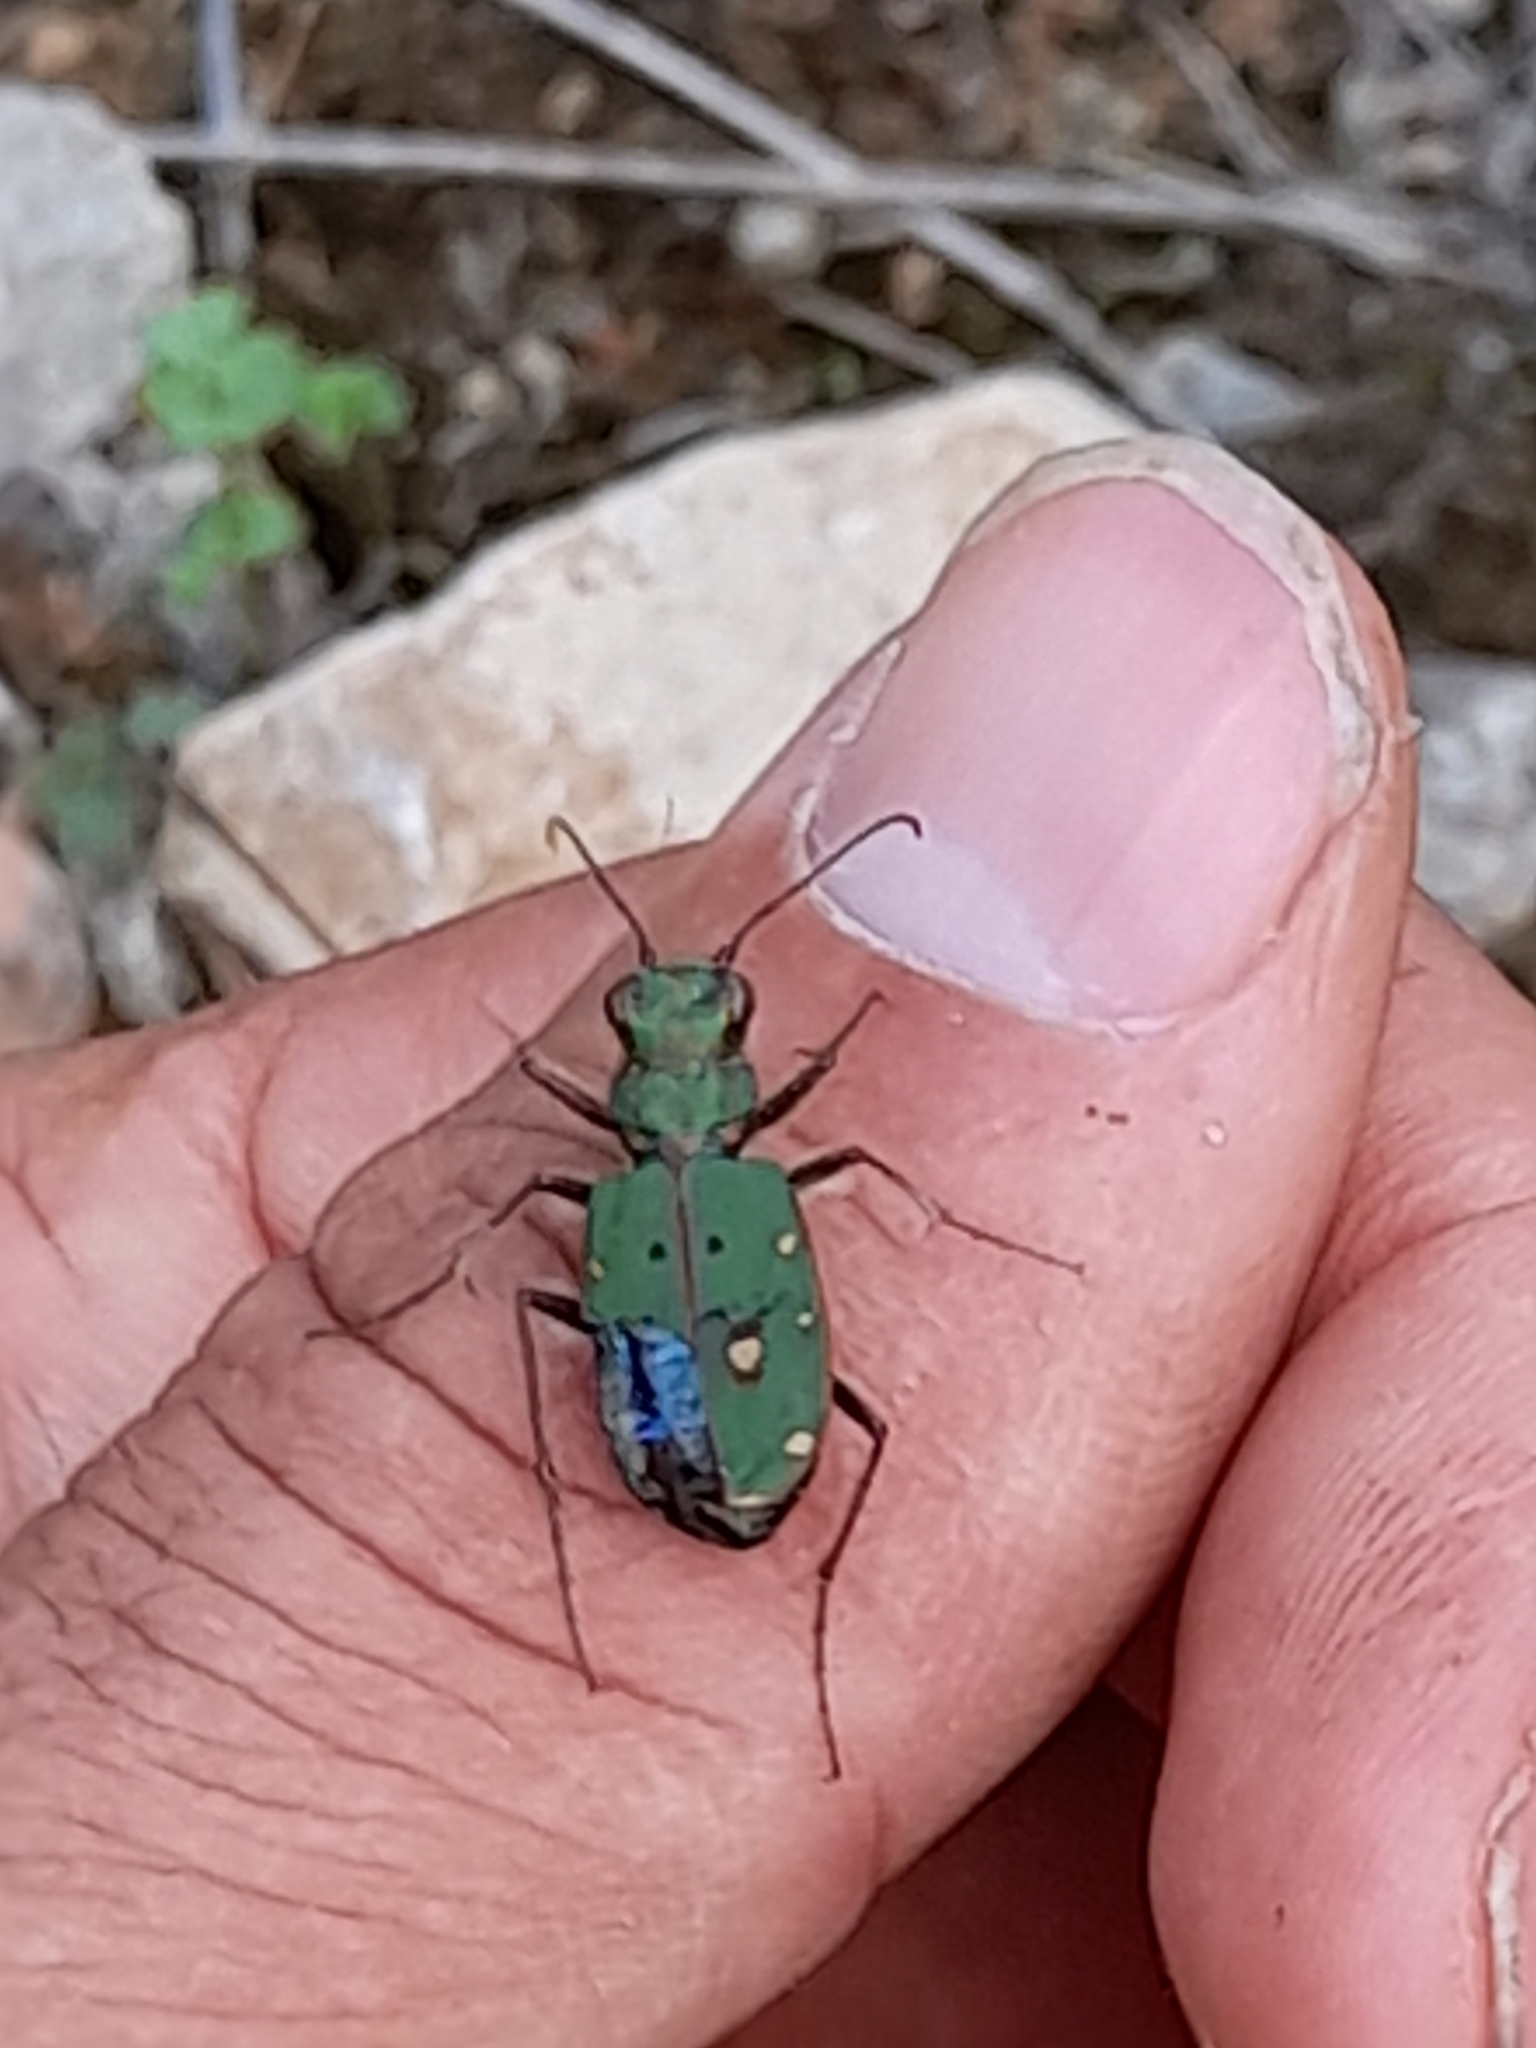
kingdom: Animalia
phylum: Arthropoda
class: Insecta
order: Coleoptera
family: Carabidae
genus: Cicindela
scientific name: Cicindela campestris
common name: Common tiger beetle
